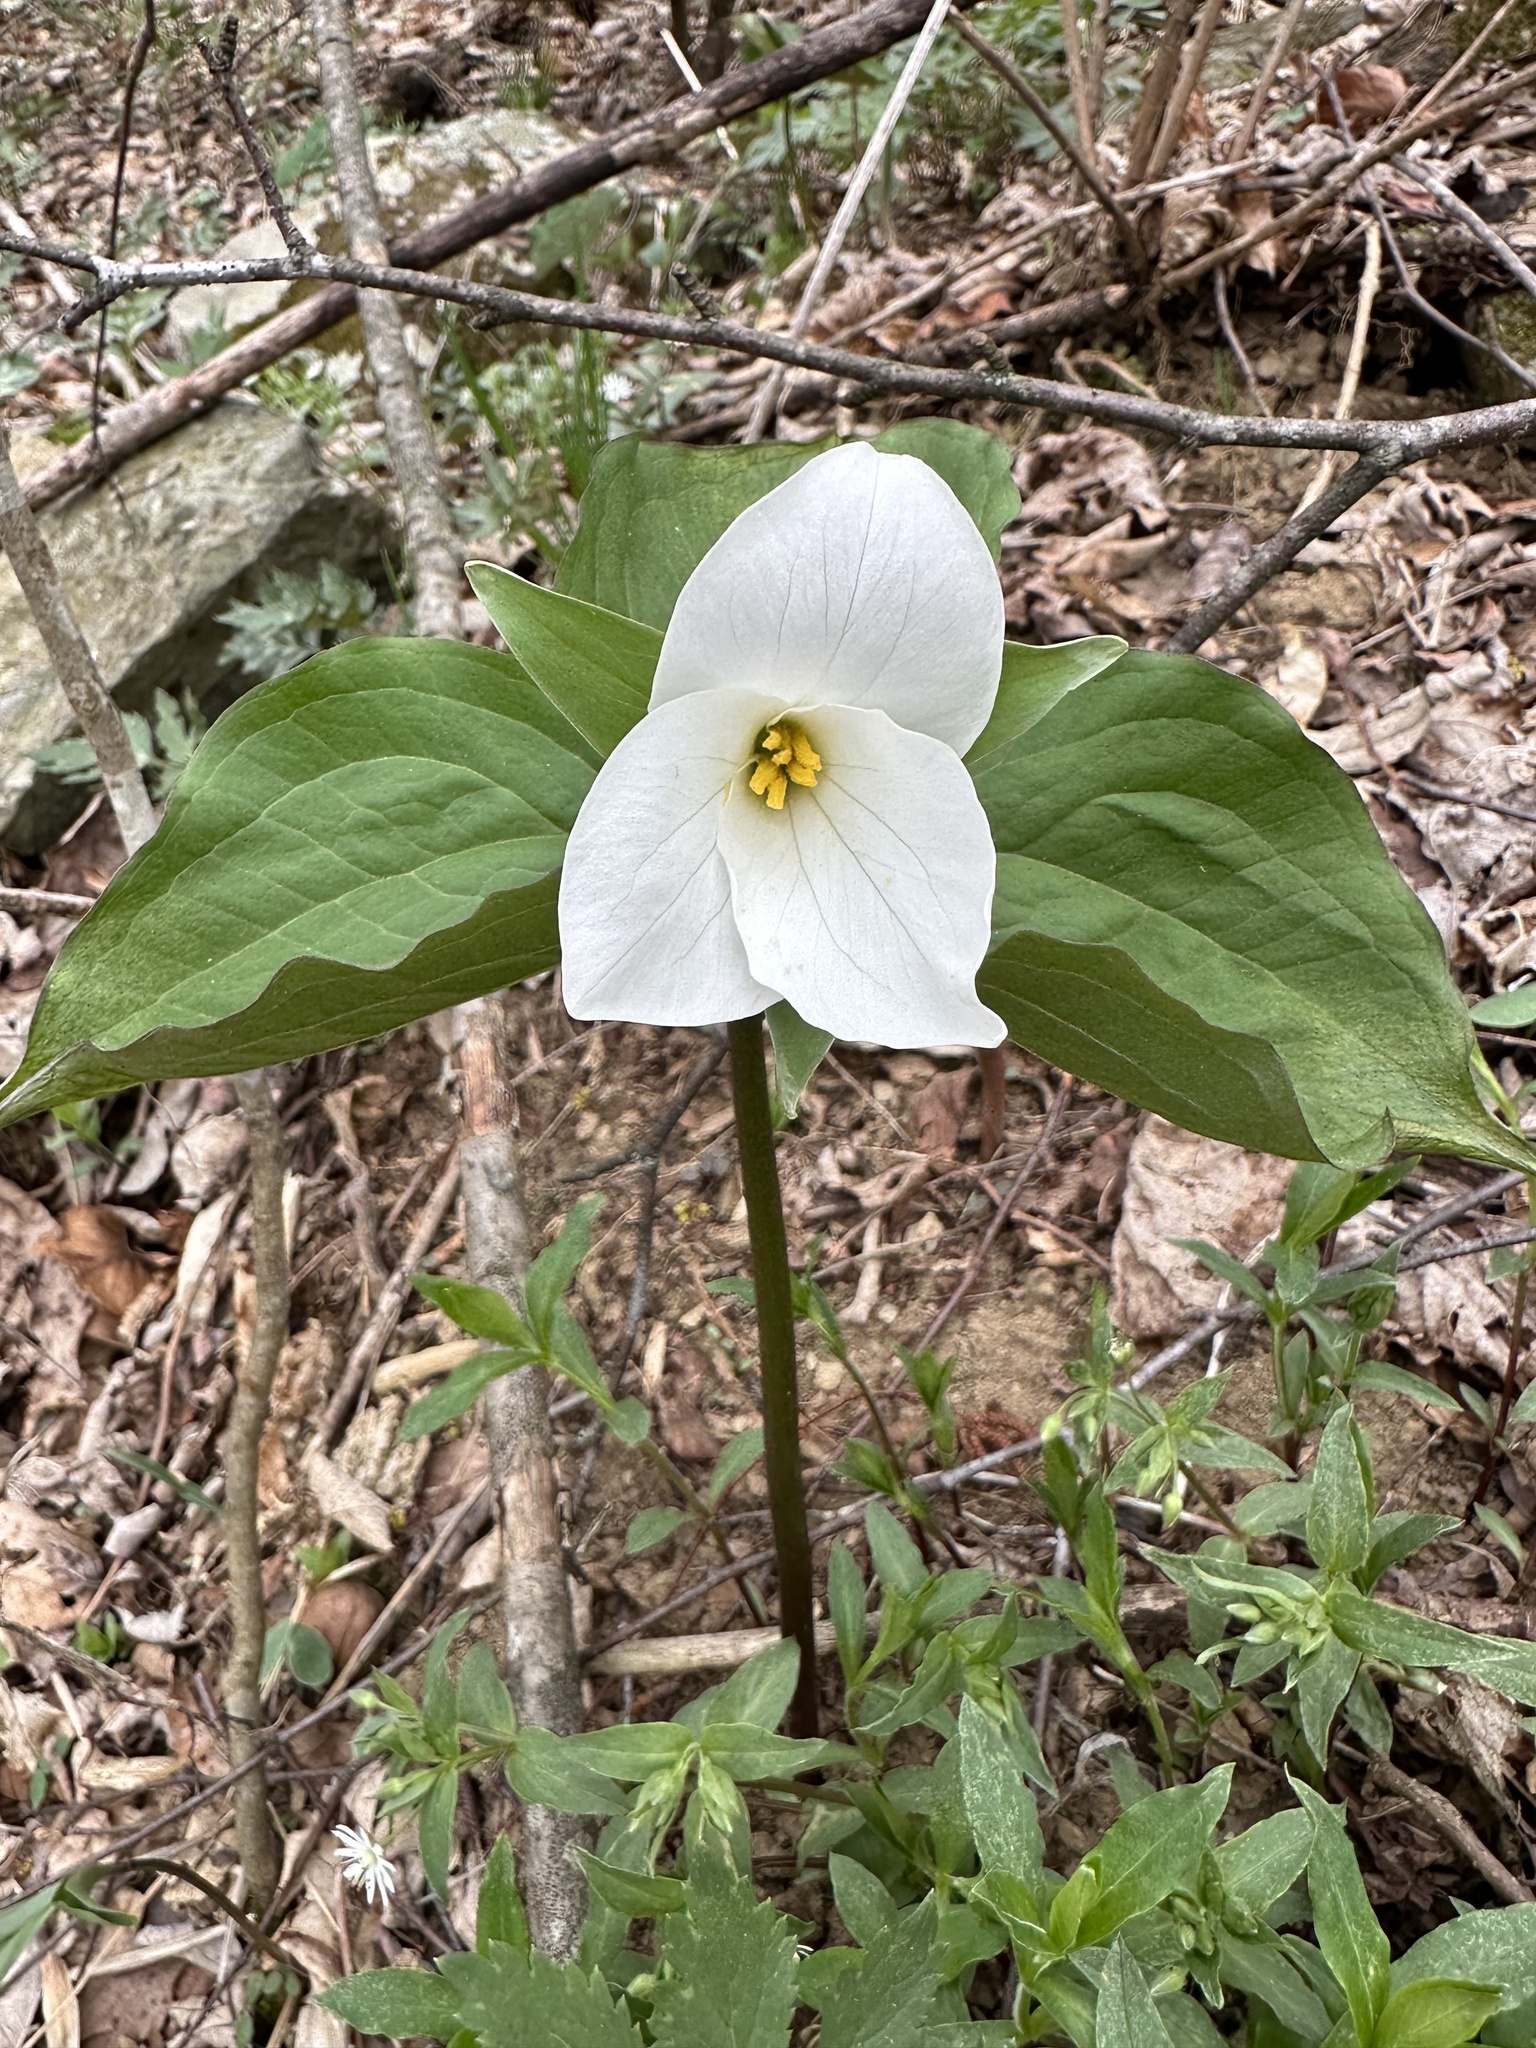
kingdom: Plantae
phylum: Tracheophyta
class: Liliopsida
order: Liliales
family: Melanthiaceae
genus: Trillium
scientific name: Trillium grandiflorum
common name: Great white trillium
